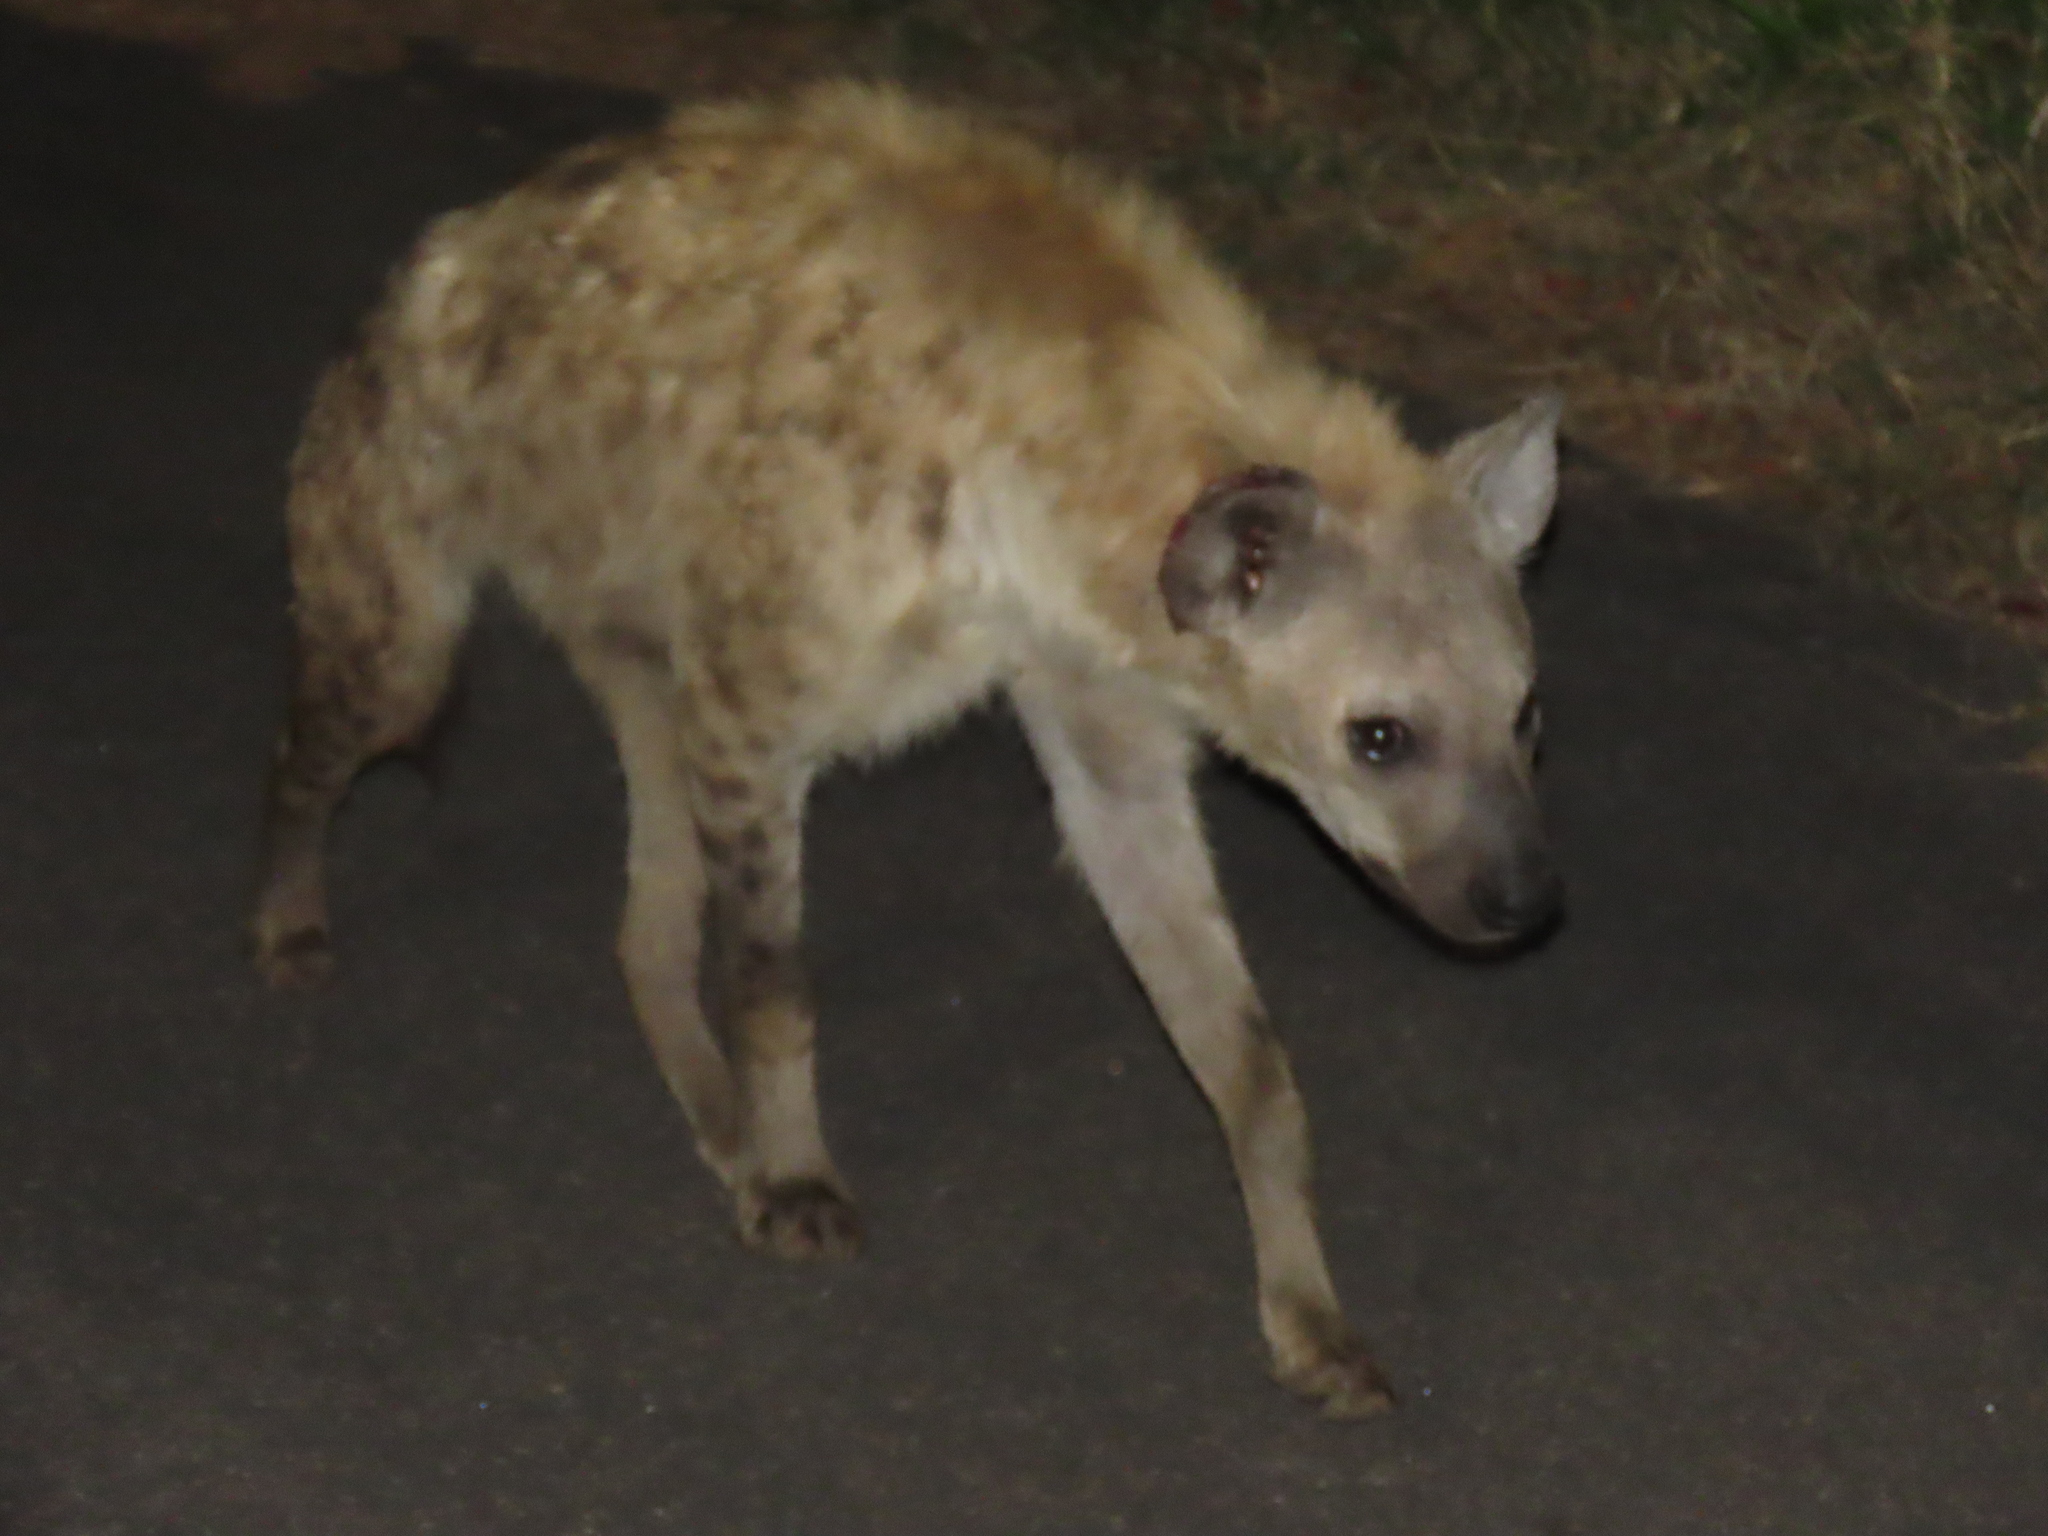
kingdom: Animalia
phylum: Chordata
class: Mammalia
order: Carnivora
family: Hyaenidae
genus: Crocuta
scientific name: Crocuta crocuta
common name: Spotted hyaena
